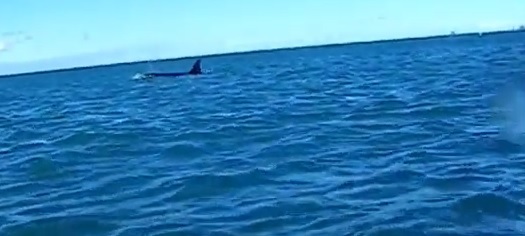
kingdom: Animalia
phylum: Chordata
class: Mammalia
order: Cetacea
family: Delphinidae
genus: Orcinus
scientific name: Orcinus orca
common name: Killer whale
